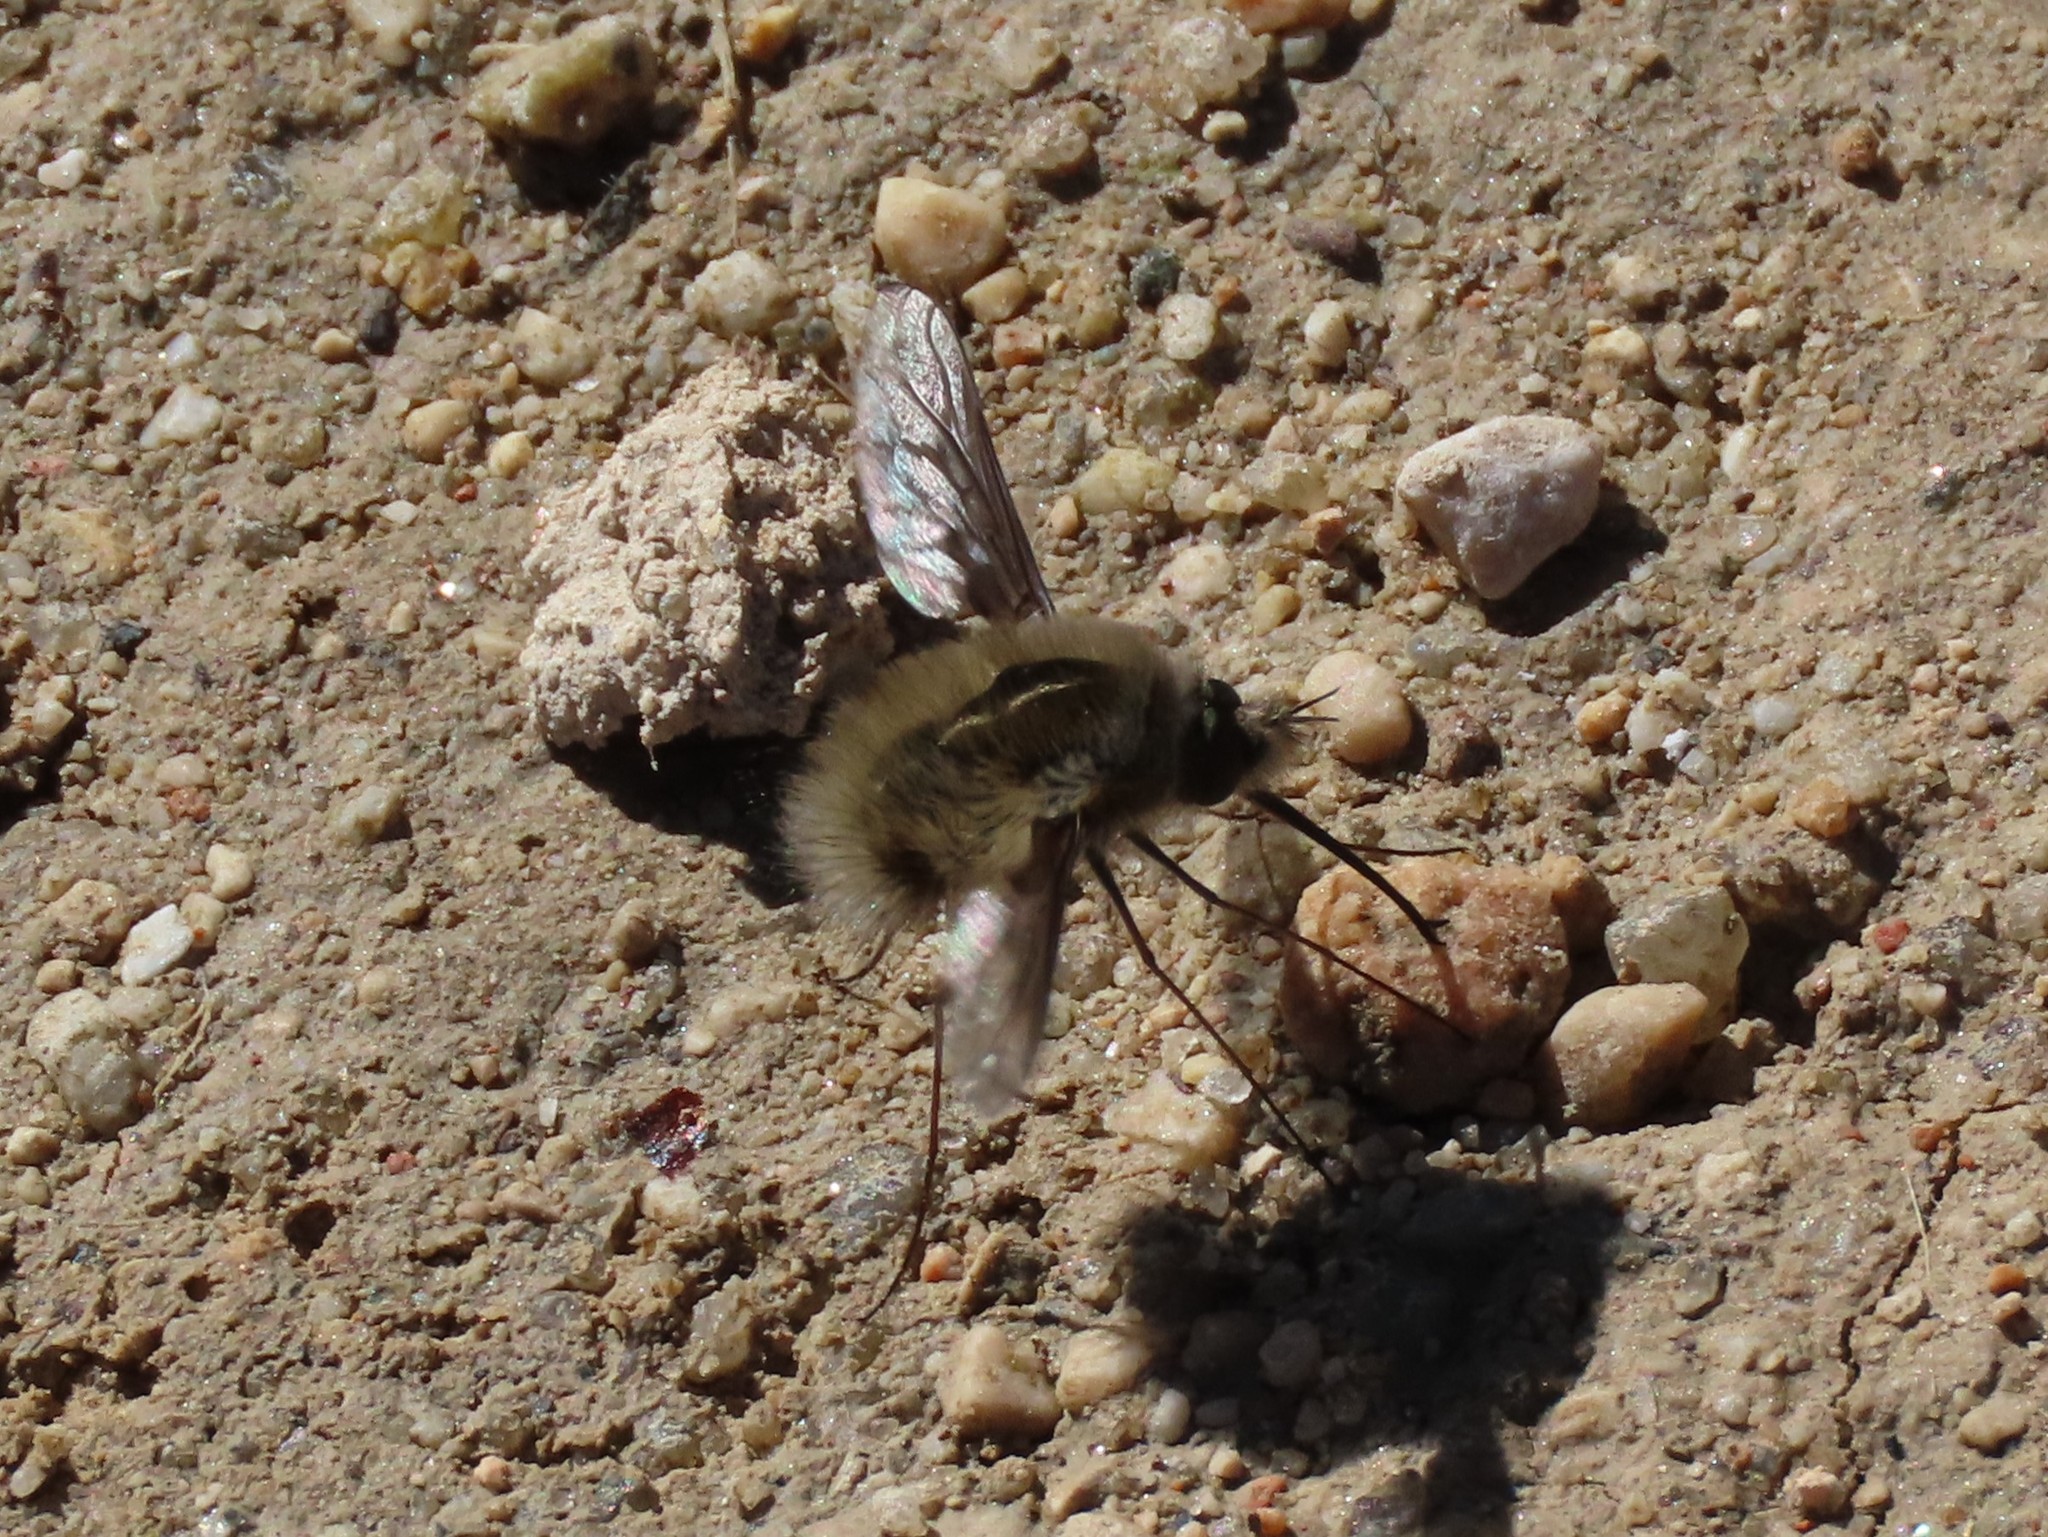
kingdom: Animalia
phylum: Arthropoda
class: Insecta
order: Diptera
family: Bombyliidae
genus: Bombylius
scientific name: Bombylius analis
